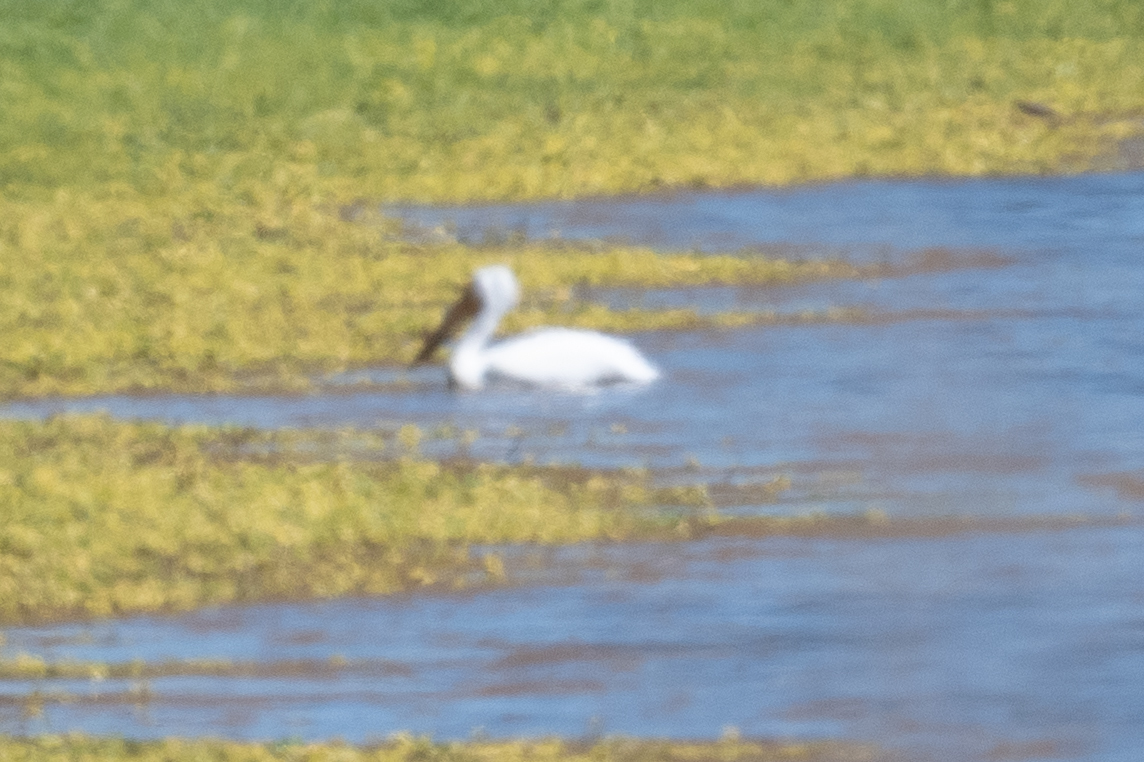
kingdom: Animalia
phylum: Chordata
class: Aves
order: Pelecaniformes
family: Pelecanidae
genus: Pelecanus
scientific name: Pelecanus erythrorhynchos
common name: American white pelican
